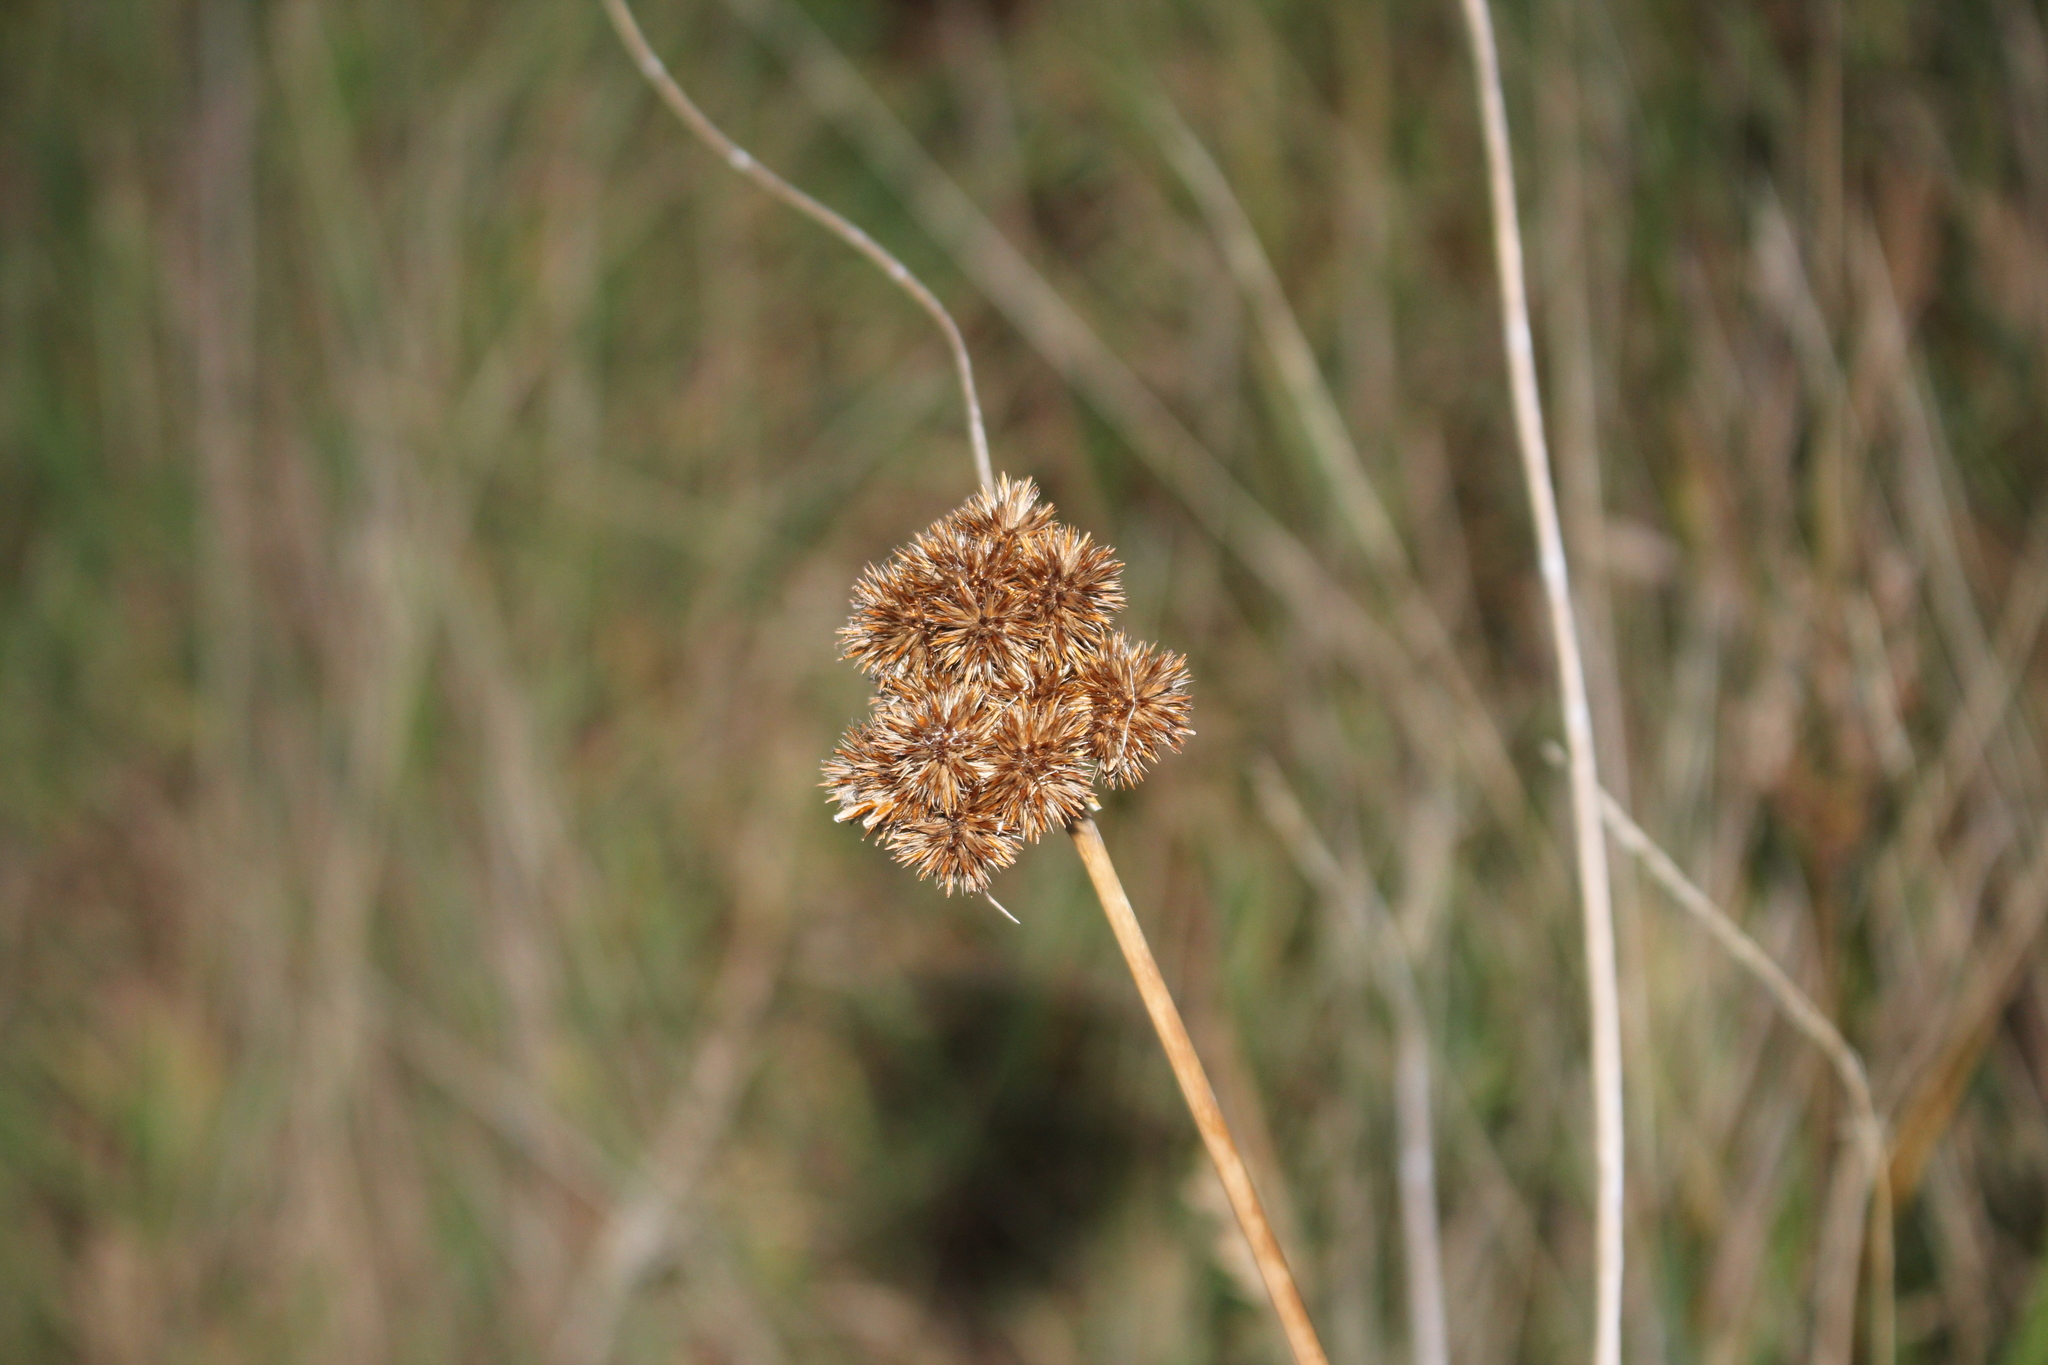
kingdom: Plantae
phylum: Tracheophyta
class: Liliopsida
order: Poales
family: Juncaceae
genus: Juncus
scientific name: Juncus torreyi
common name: Torrey's rush
